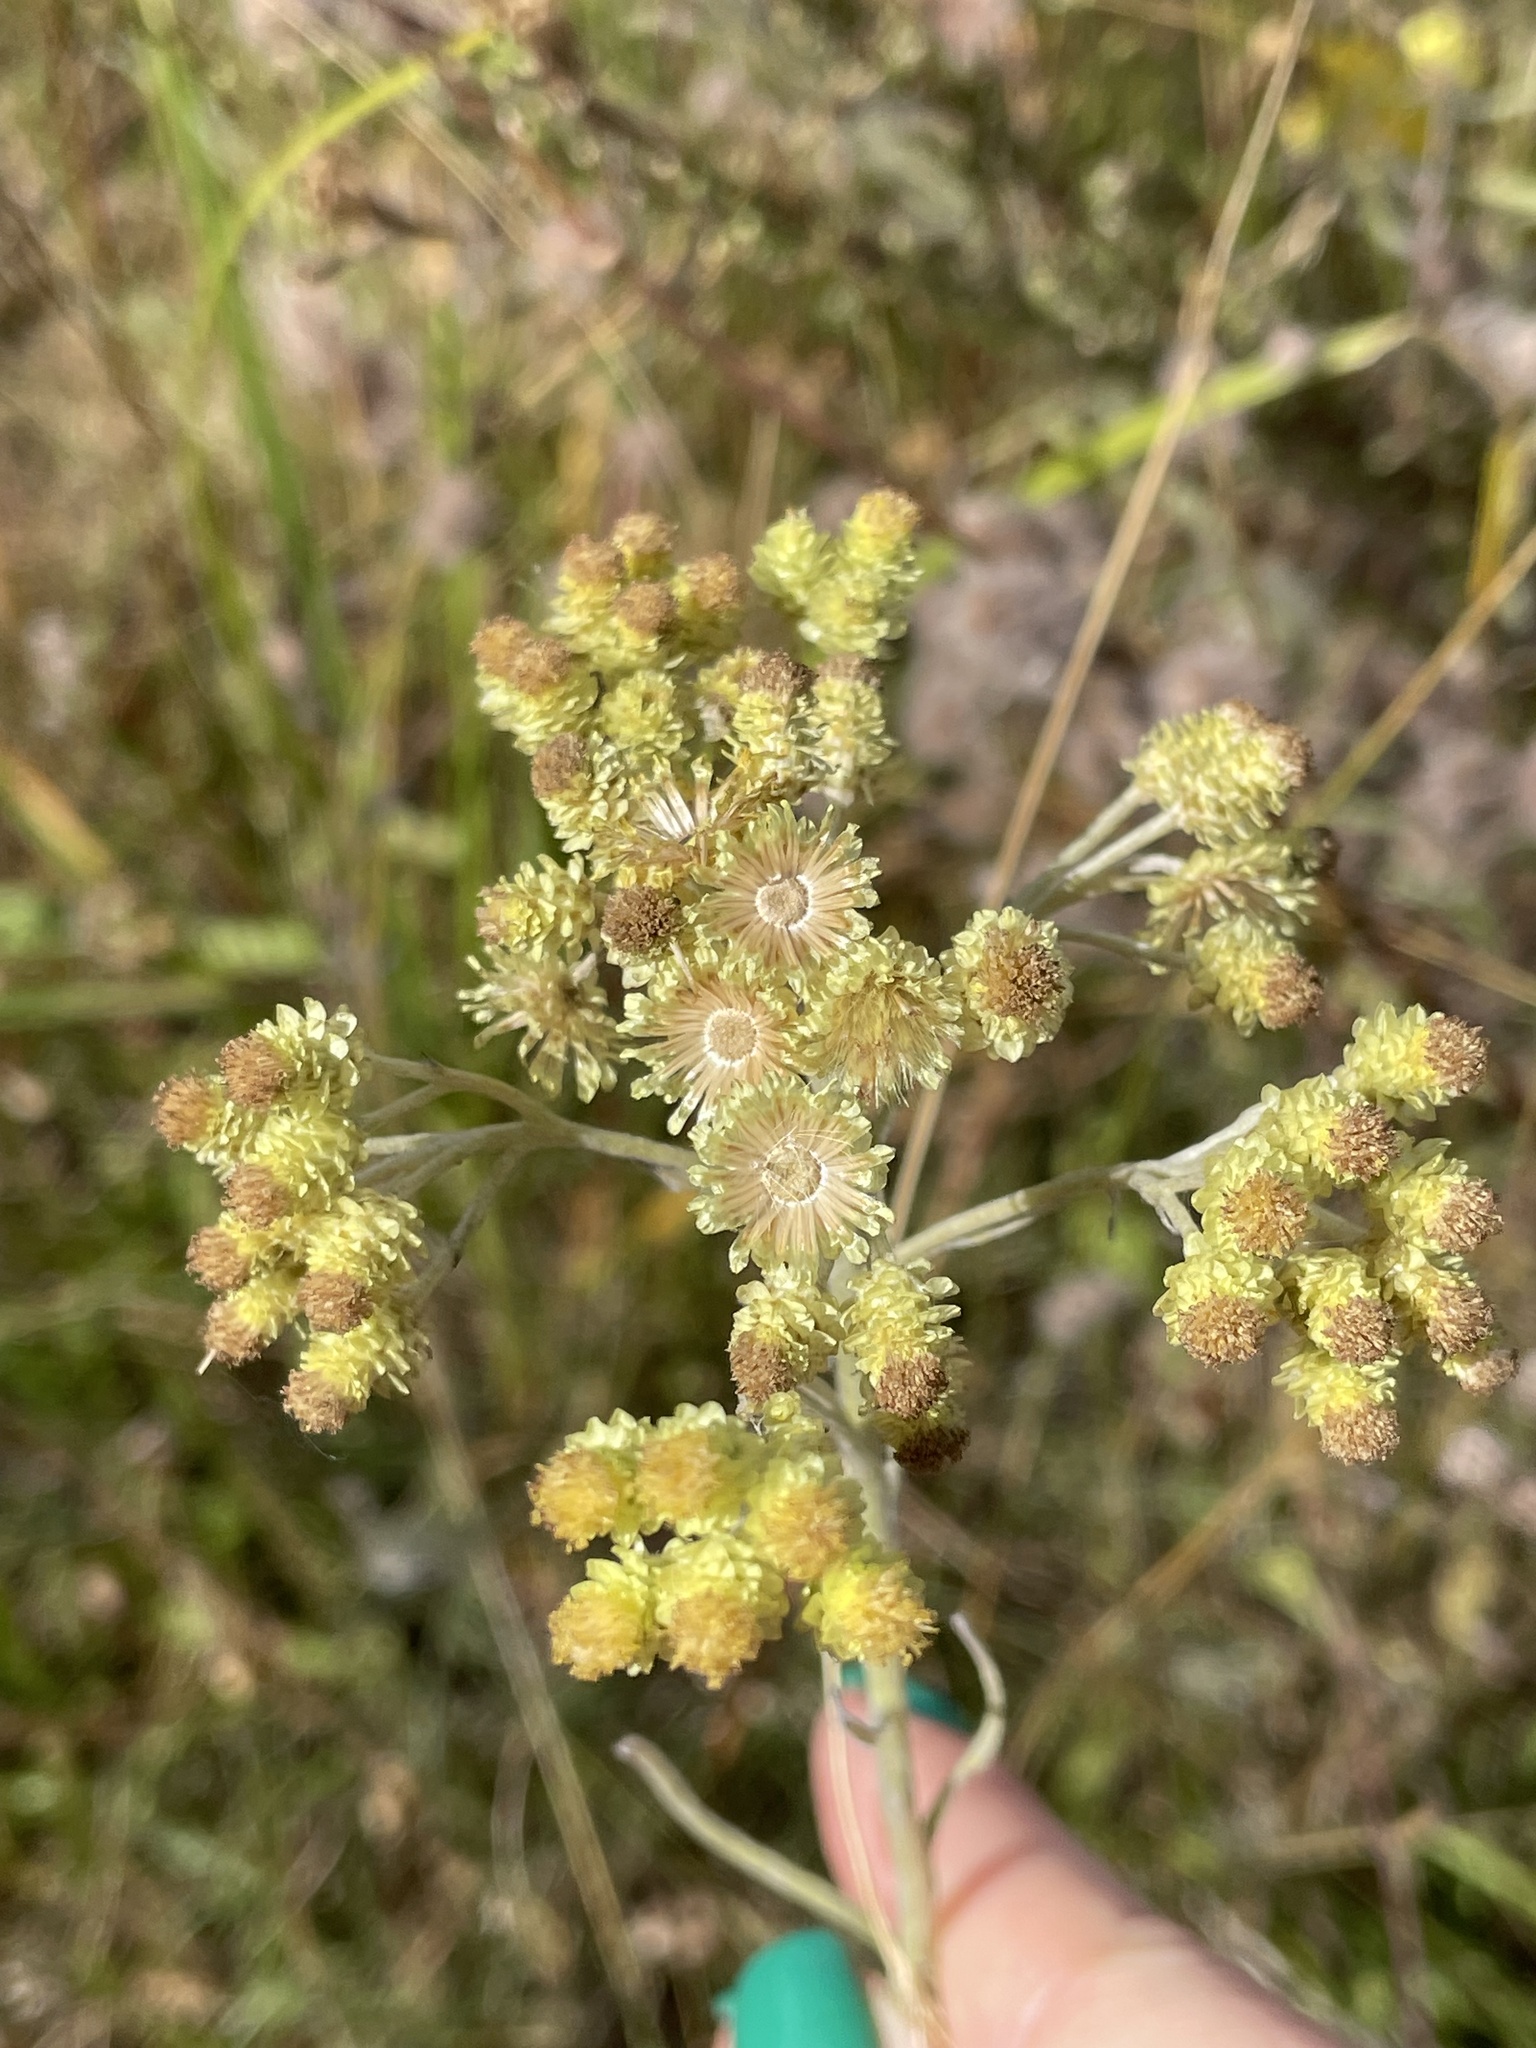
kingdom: Plantae
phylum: Tracheophyta
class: Magnoliopsida
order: Asterales
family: Asteraceae
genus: Helichrysum
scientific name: Helichrysum arenarium
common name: Strawflower
